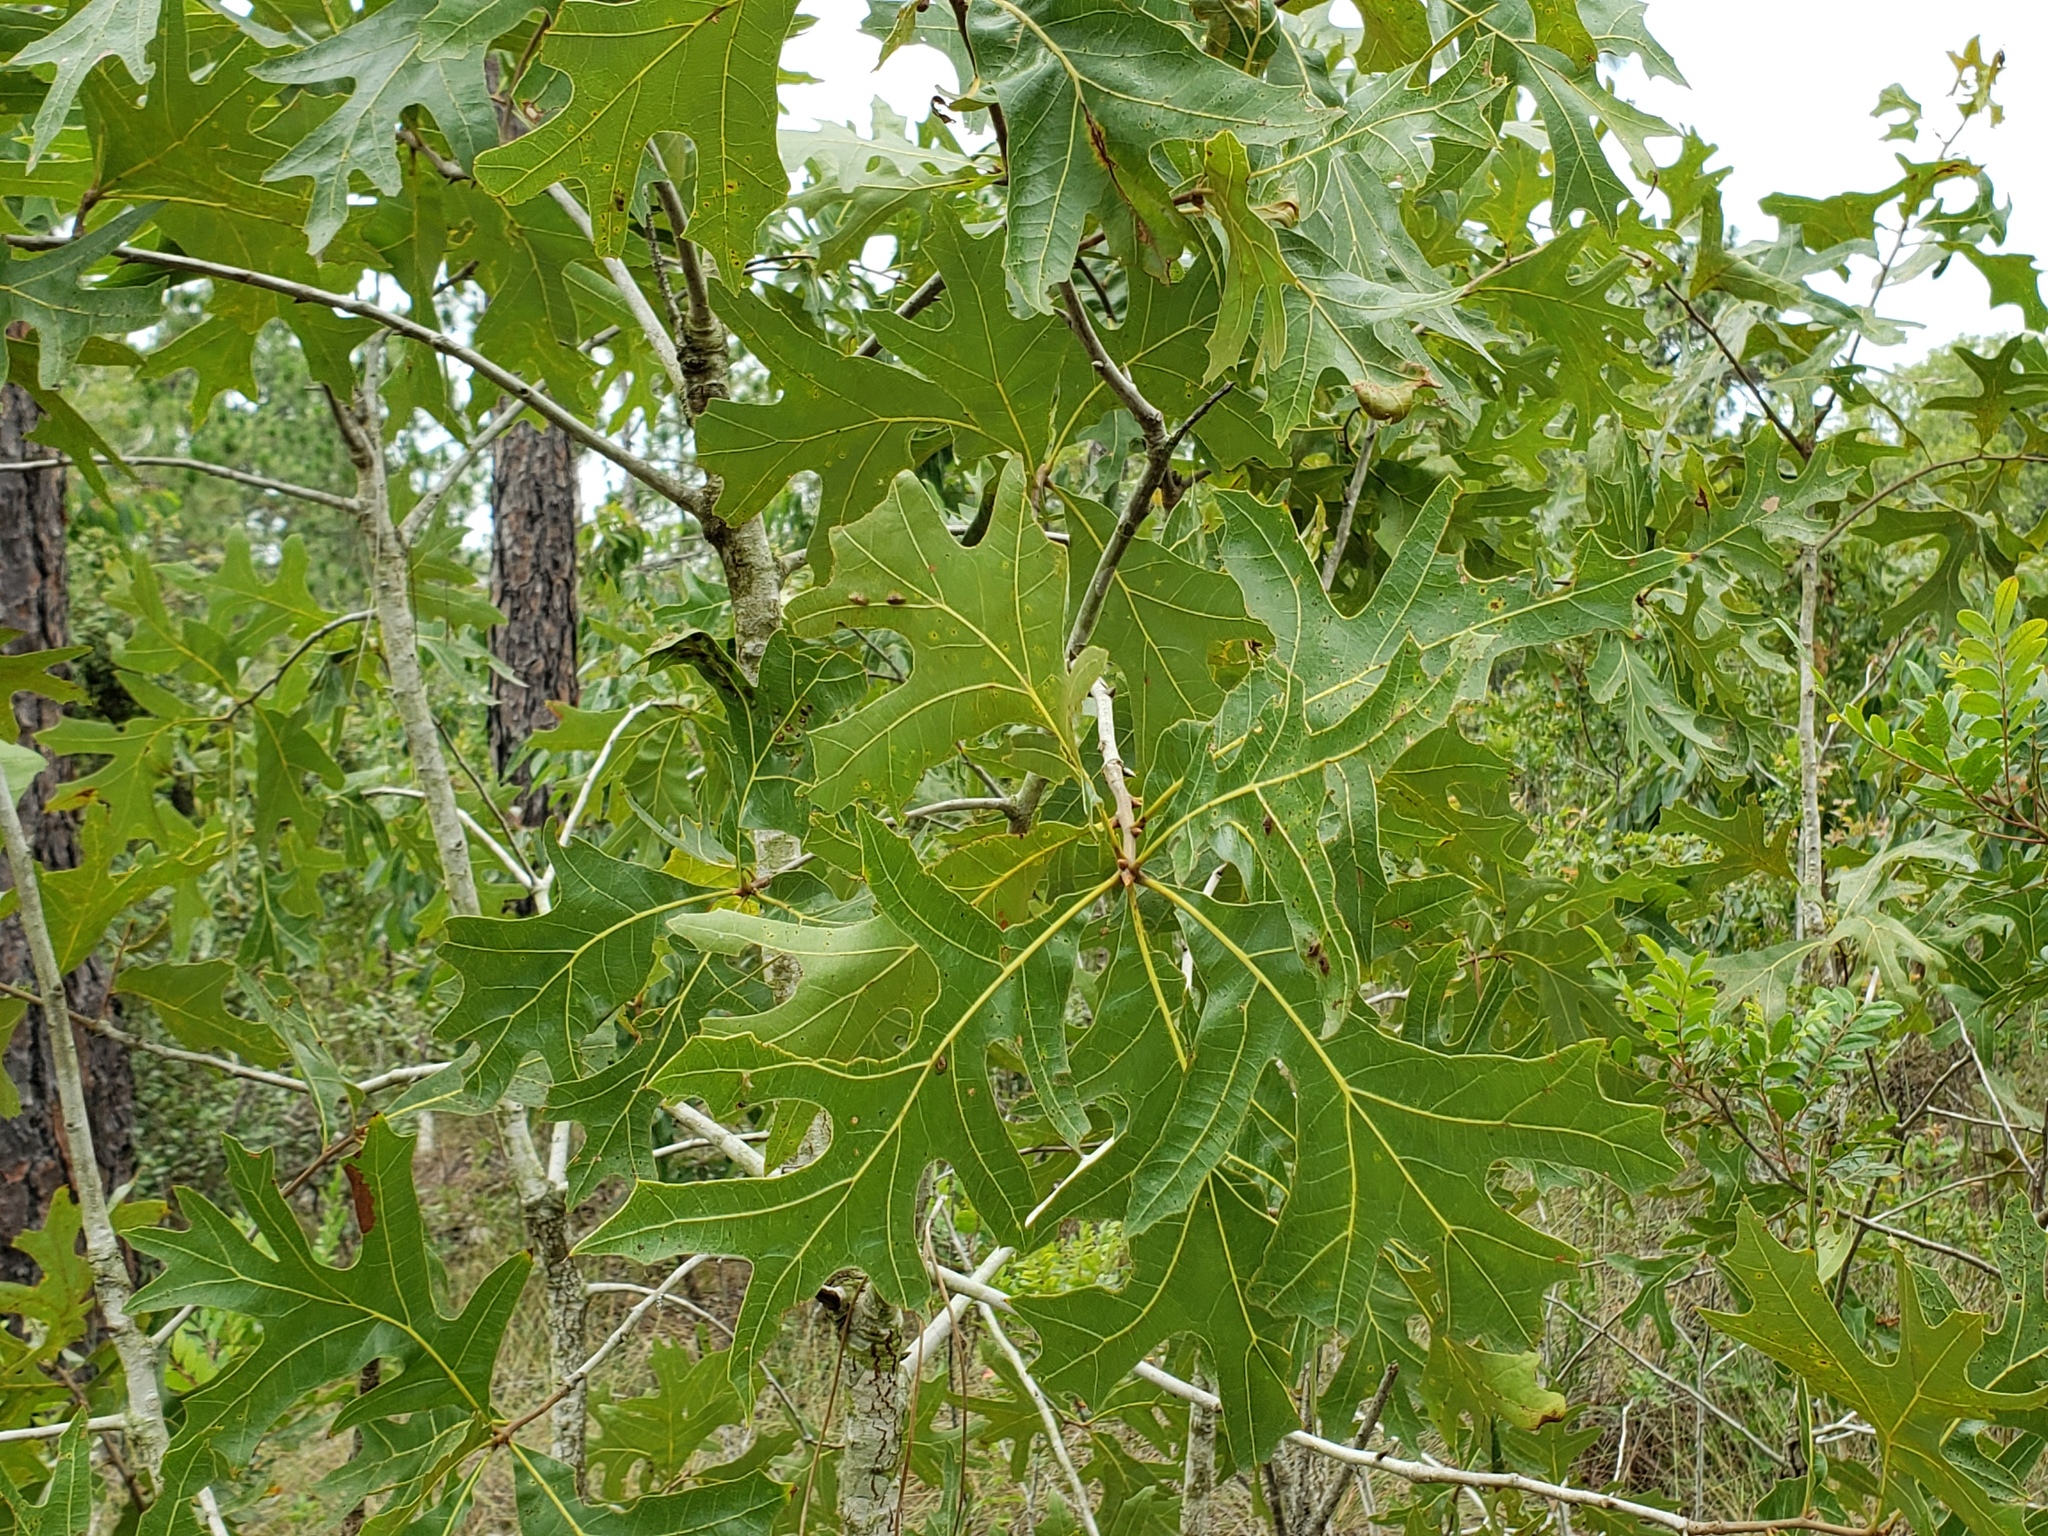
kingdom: Plantae
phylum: Tracheophyta
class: Magnoliopsida
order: Fagales
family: Fagaceae
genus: Quercus
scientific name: Quercus laevis
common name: Turkey oak
